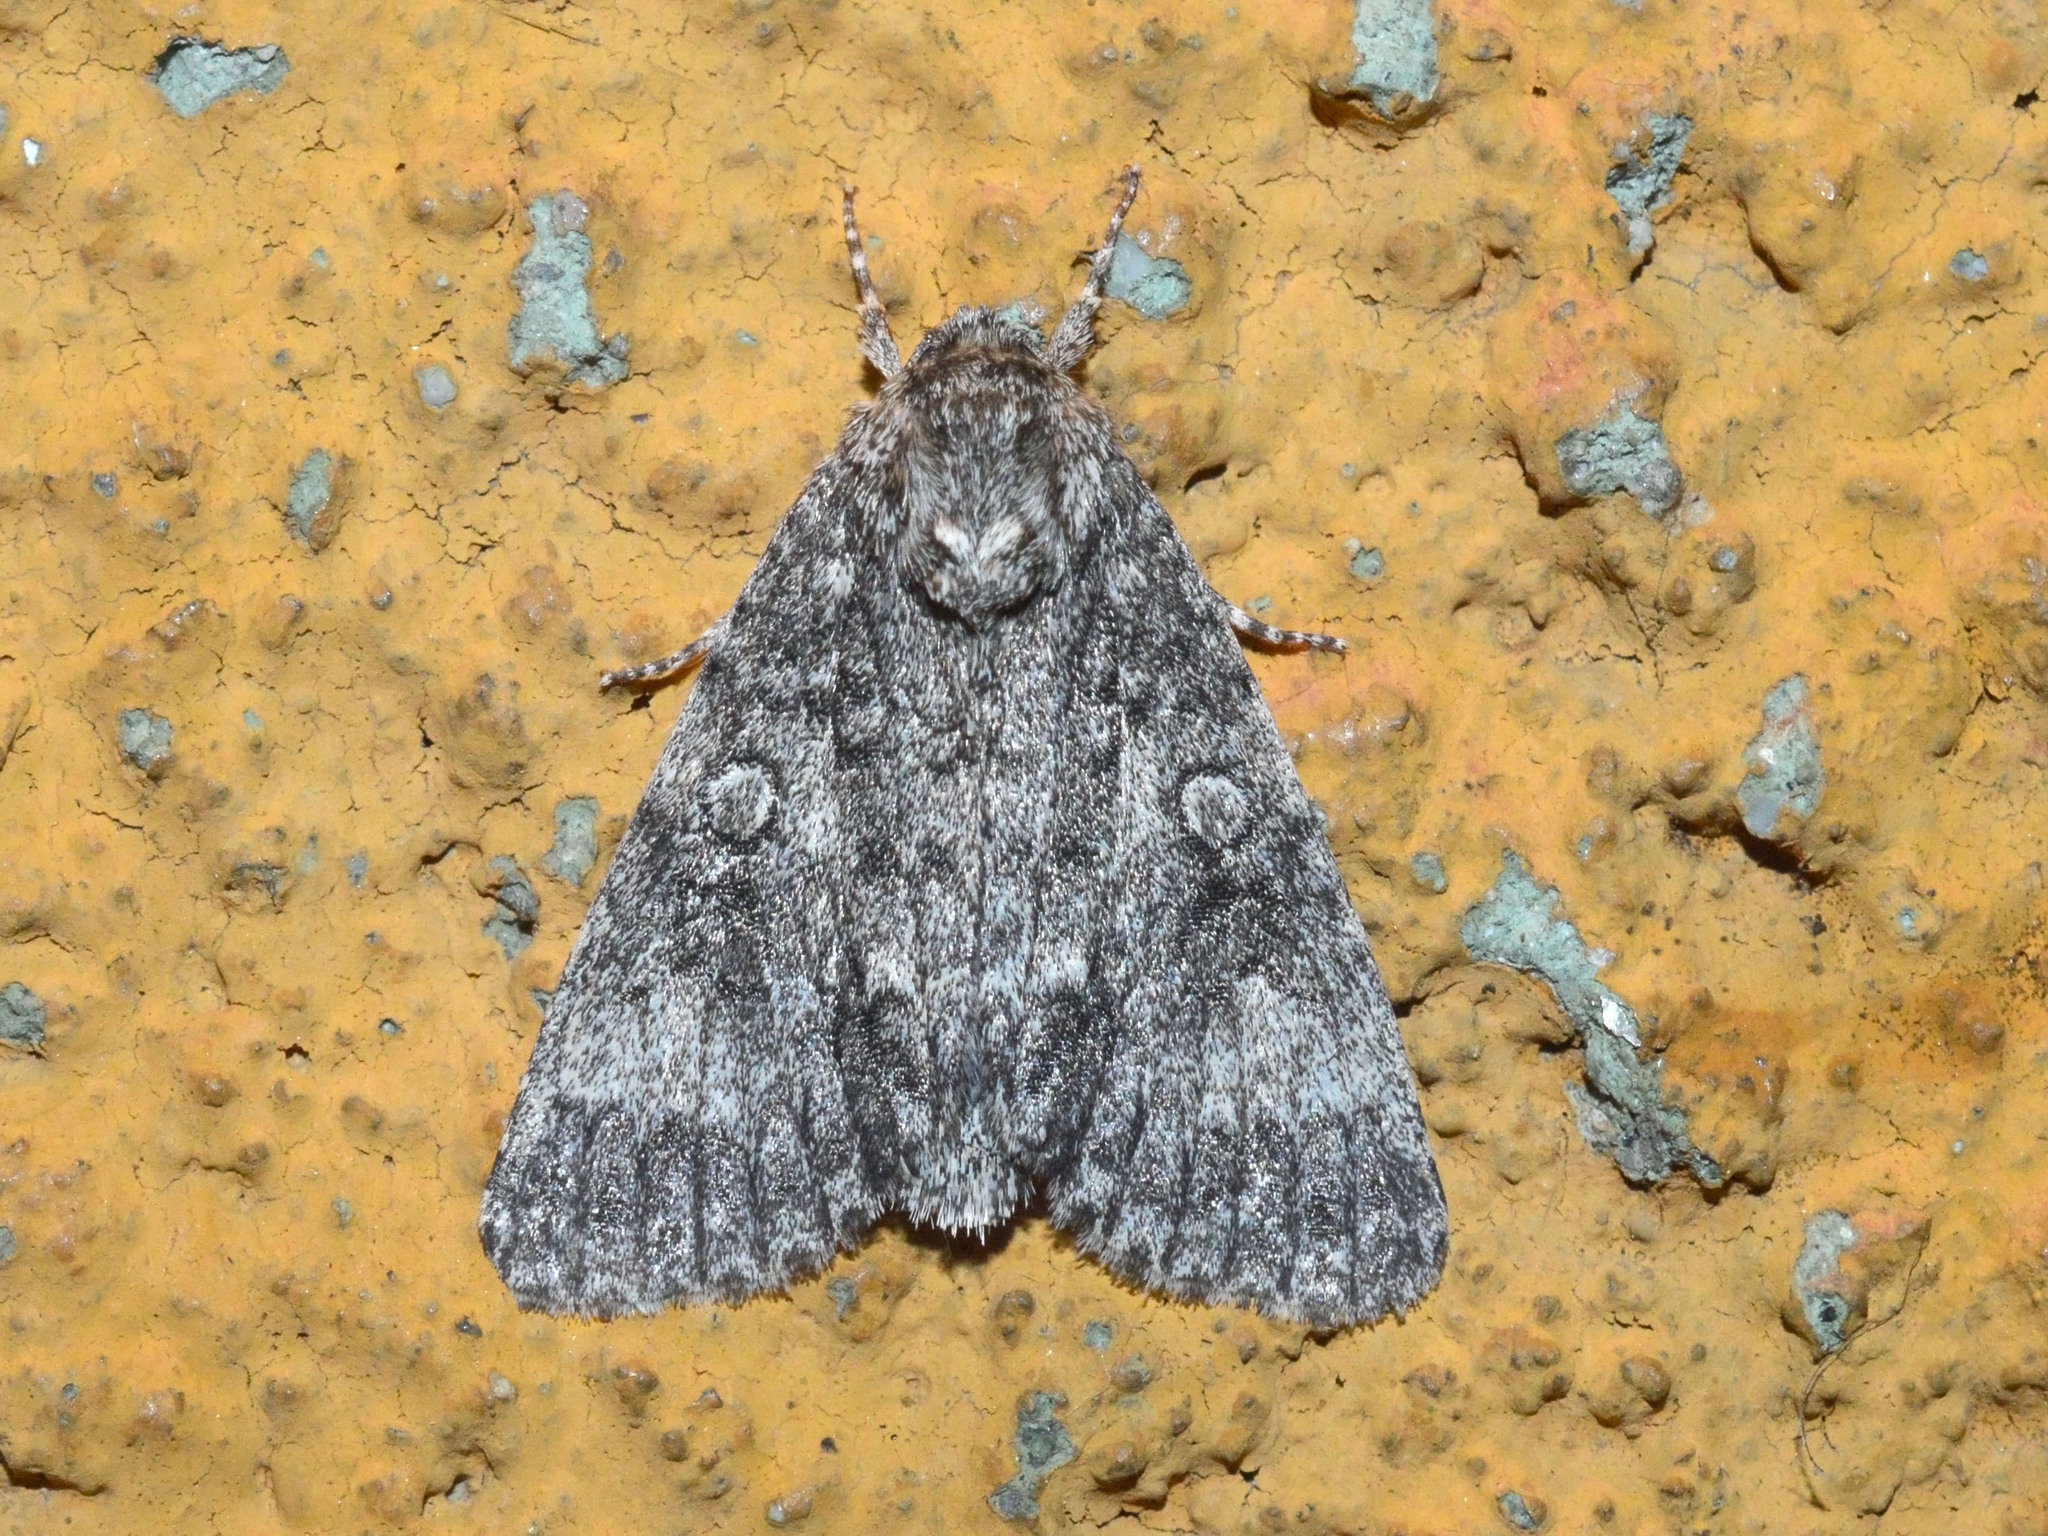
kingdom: Animalia
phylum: Arthropoda
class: Insecta
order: Lepidoptera
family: Noctuidae
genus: Acronicta
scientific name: Acronicta megacephala
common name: Poplar grey
